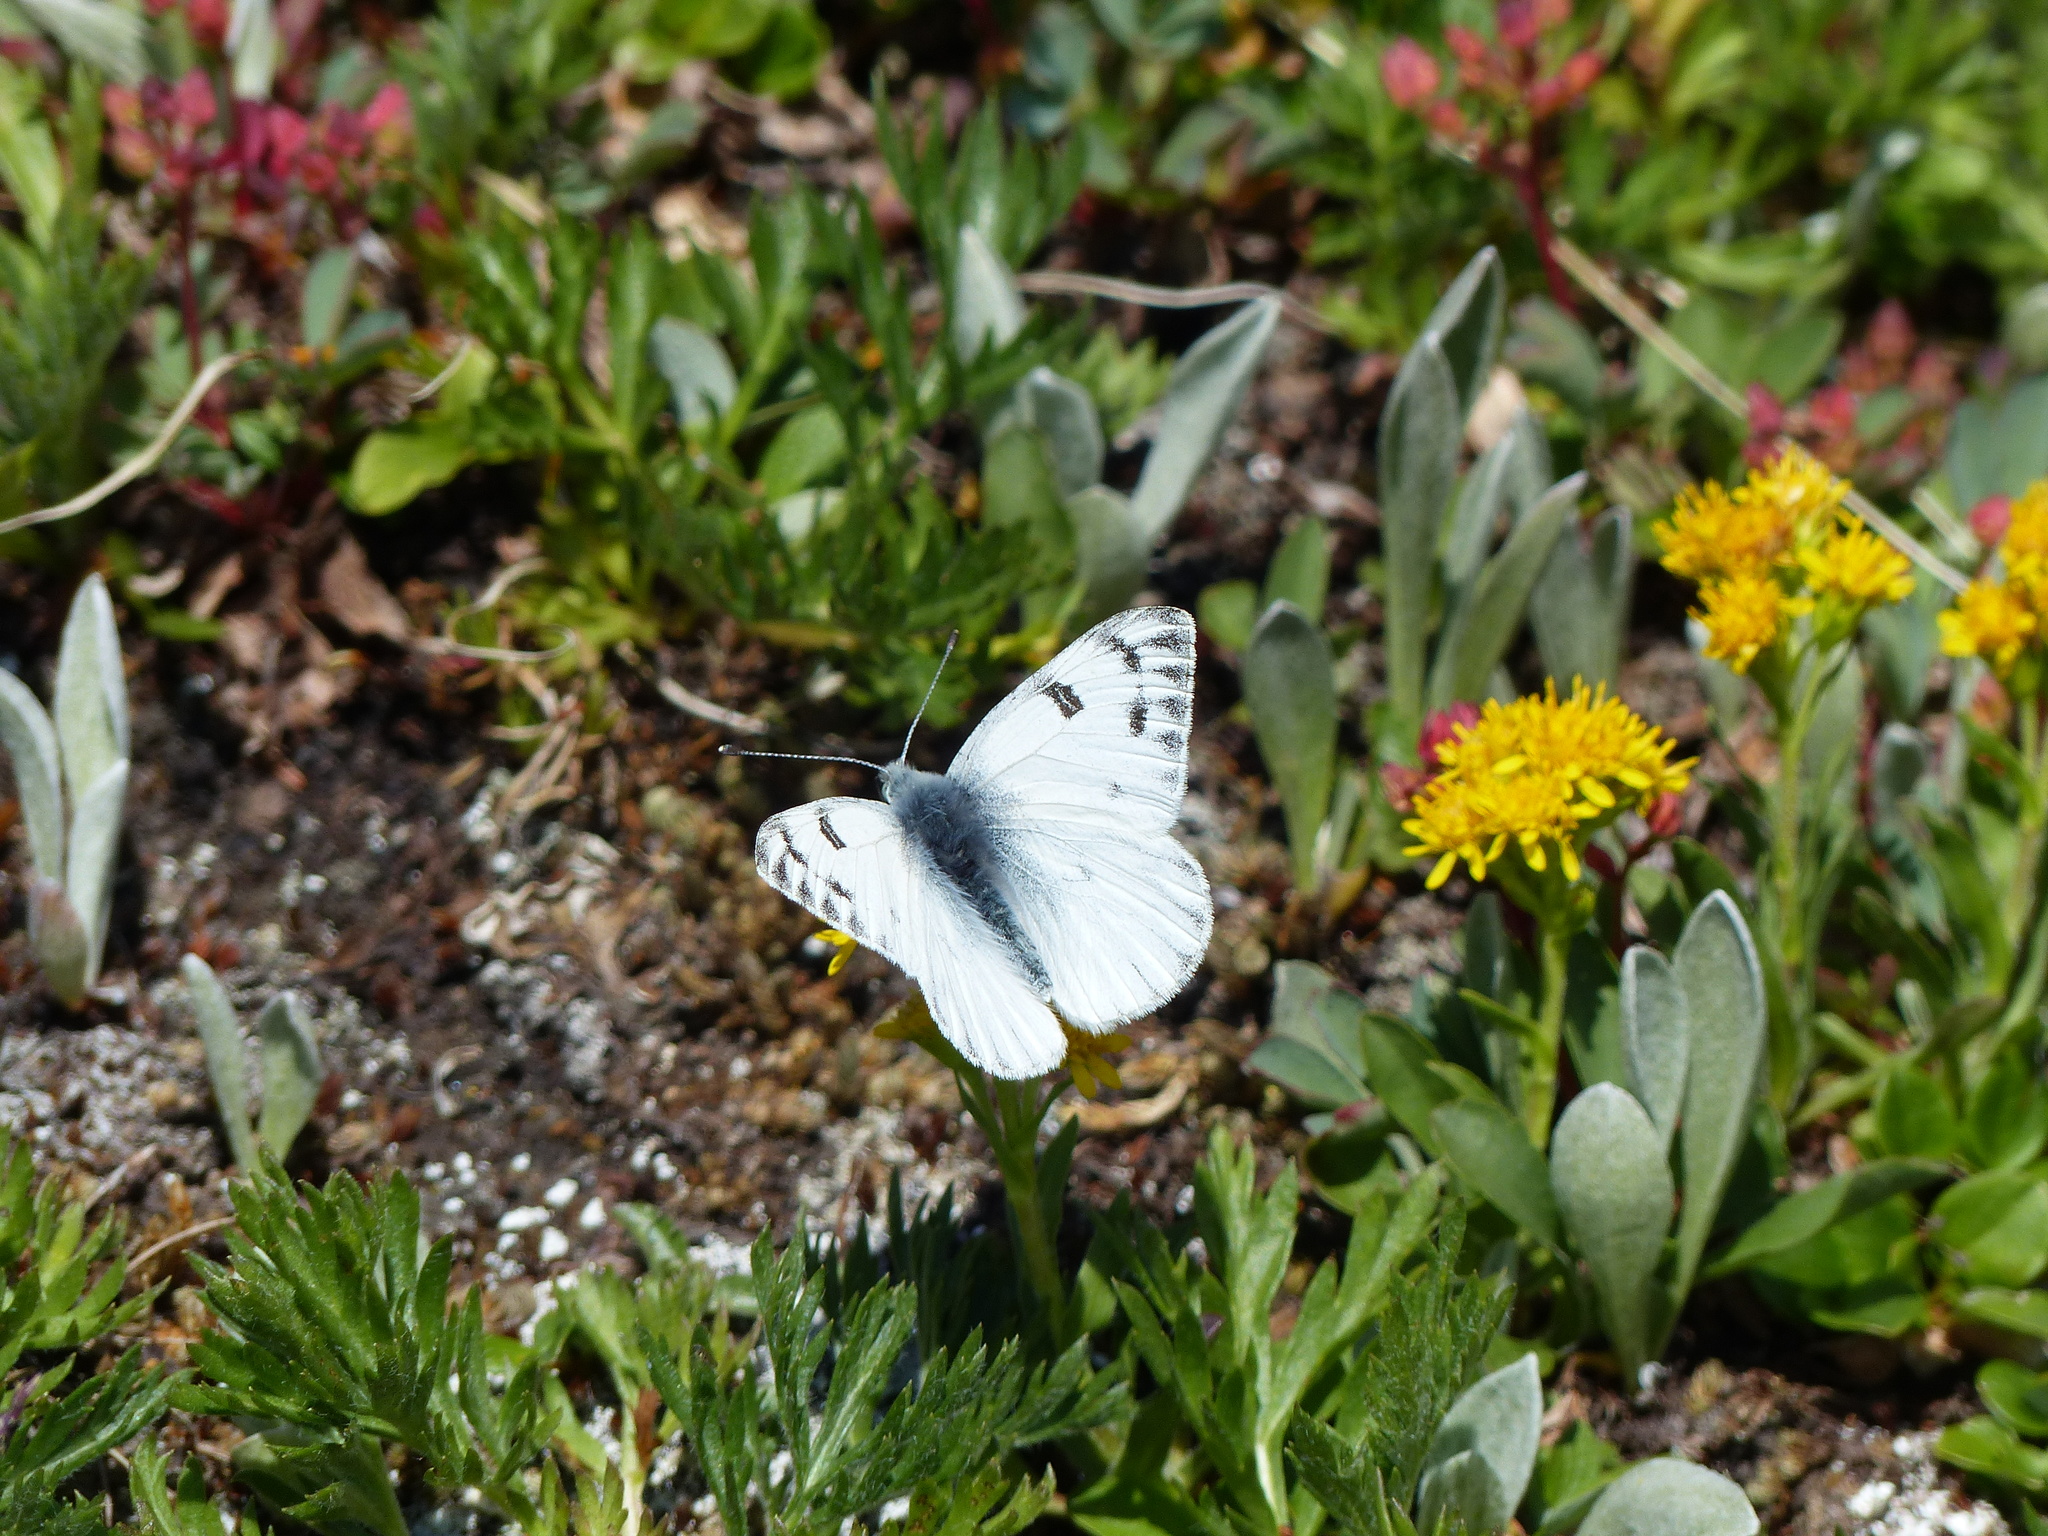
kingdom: Animalia
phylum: Arthropoda
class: Insecta
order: Lepidoptera
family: Pieridae
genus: Pontia
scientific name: Pontia occidentalis
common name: Western white
